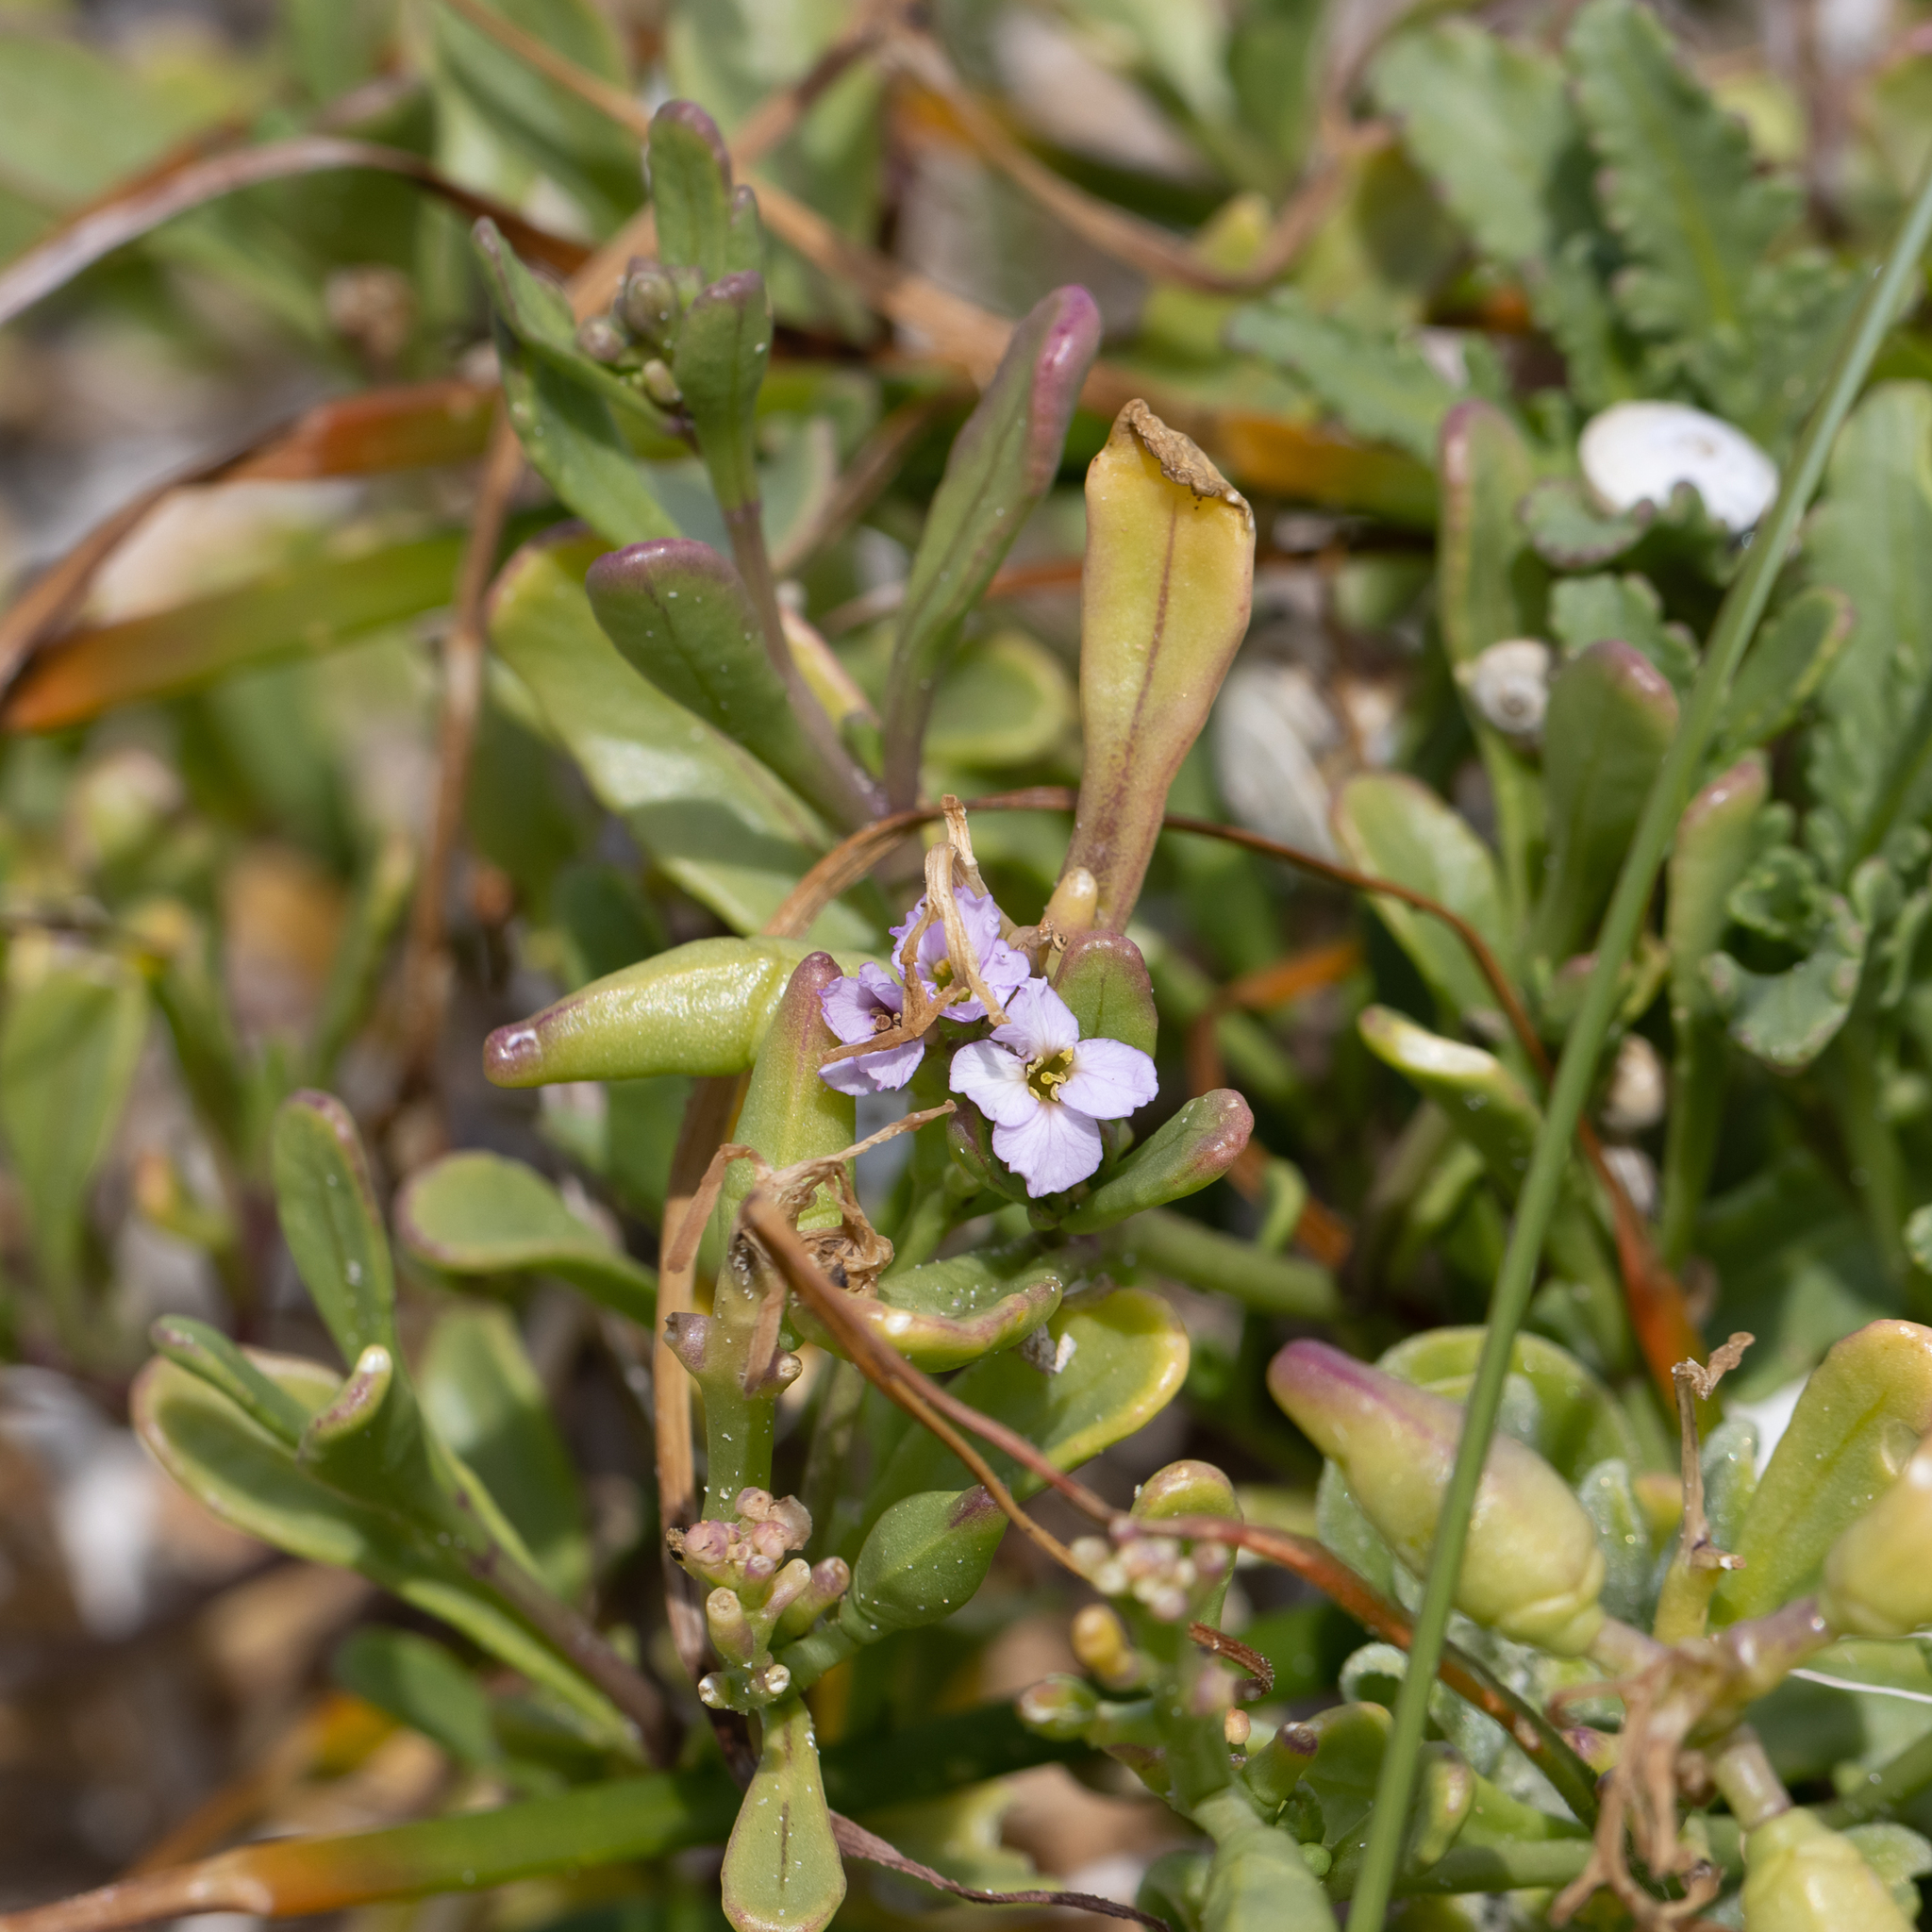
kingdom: Plantae
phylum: Tracheophyta
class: Magnoliopsida
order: Brassicales
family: Brassicaceae
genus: Cakile
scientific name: Cakile maritima
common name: Sea rocket
